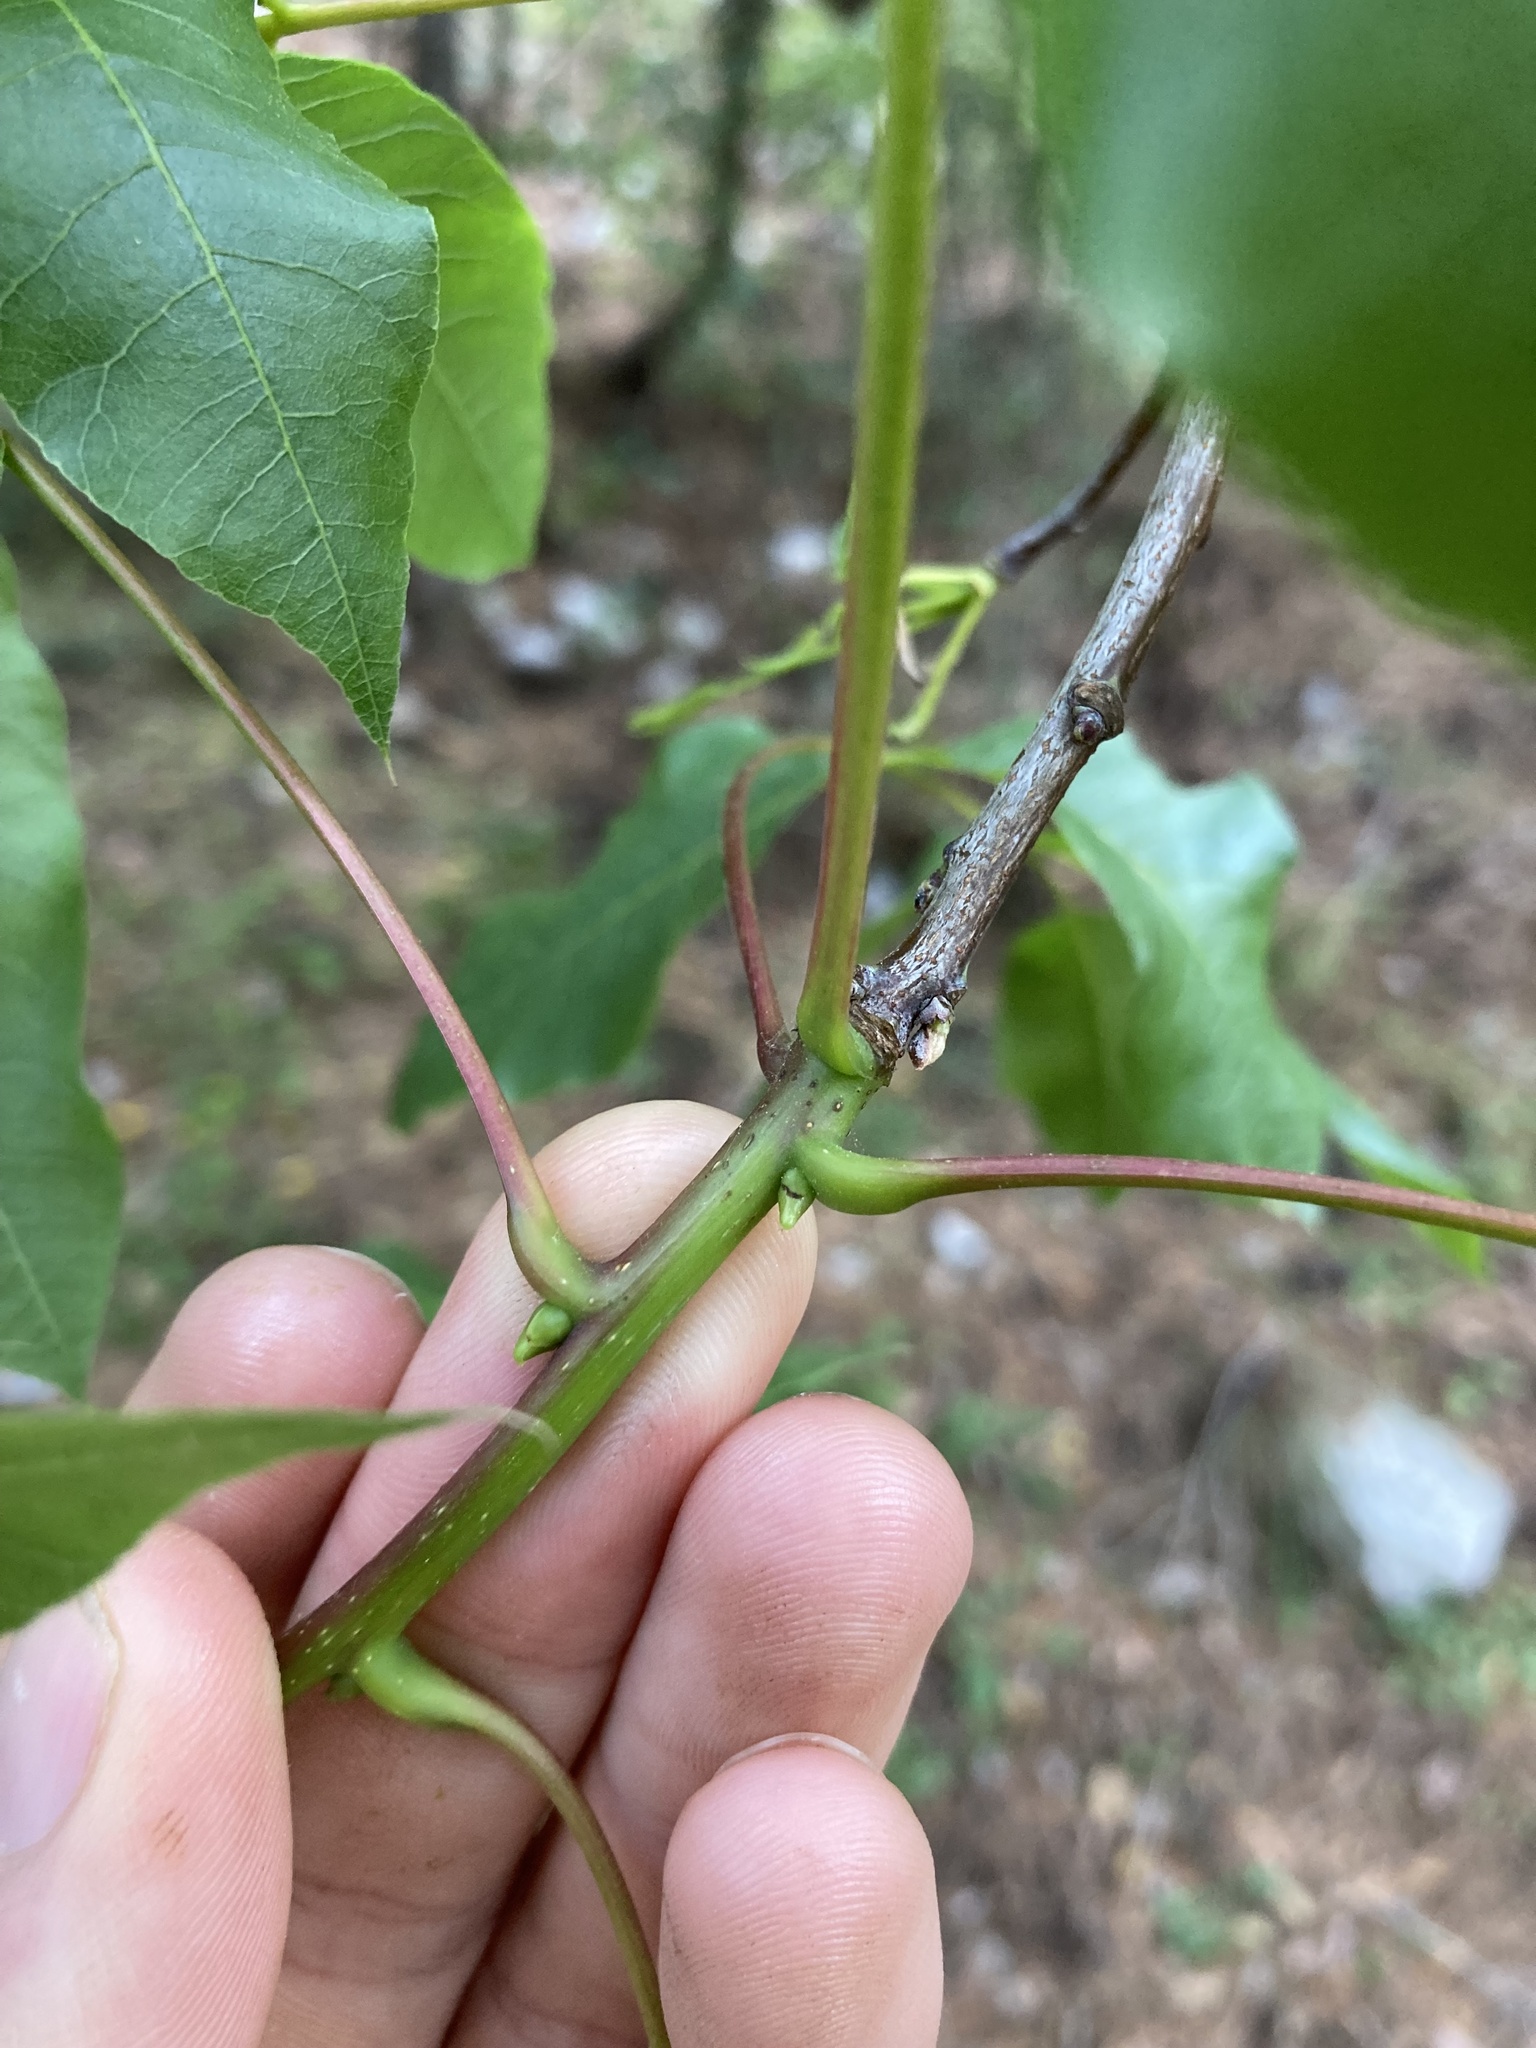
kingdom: Plantae
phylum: Tracheophyta
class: Magnoliopsida
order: Sapindales
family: Anacardiaceae
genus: Pistacia
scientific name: Pistacia terebinthus
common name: Terebinth
